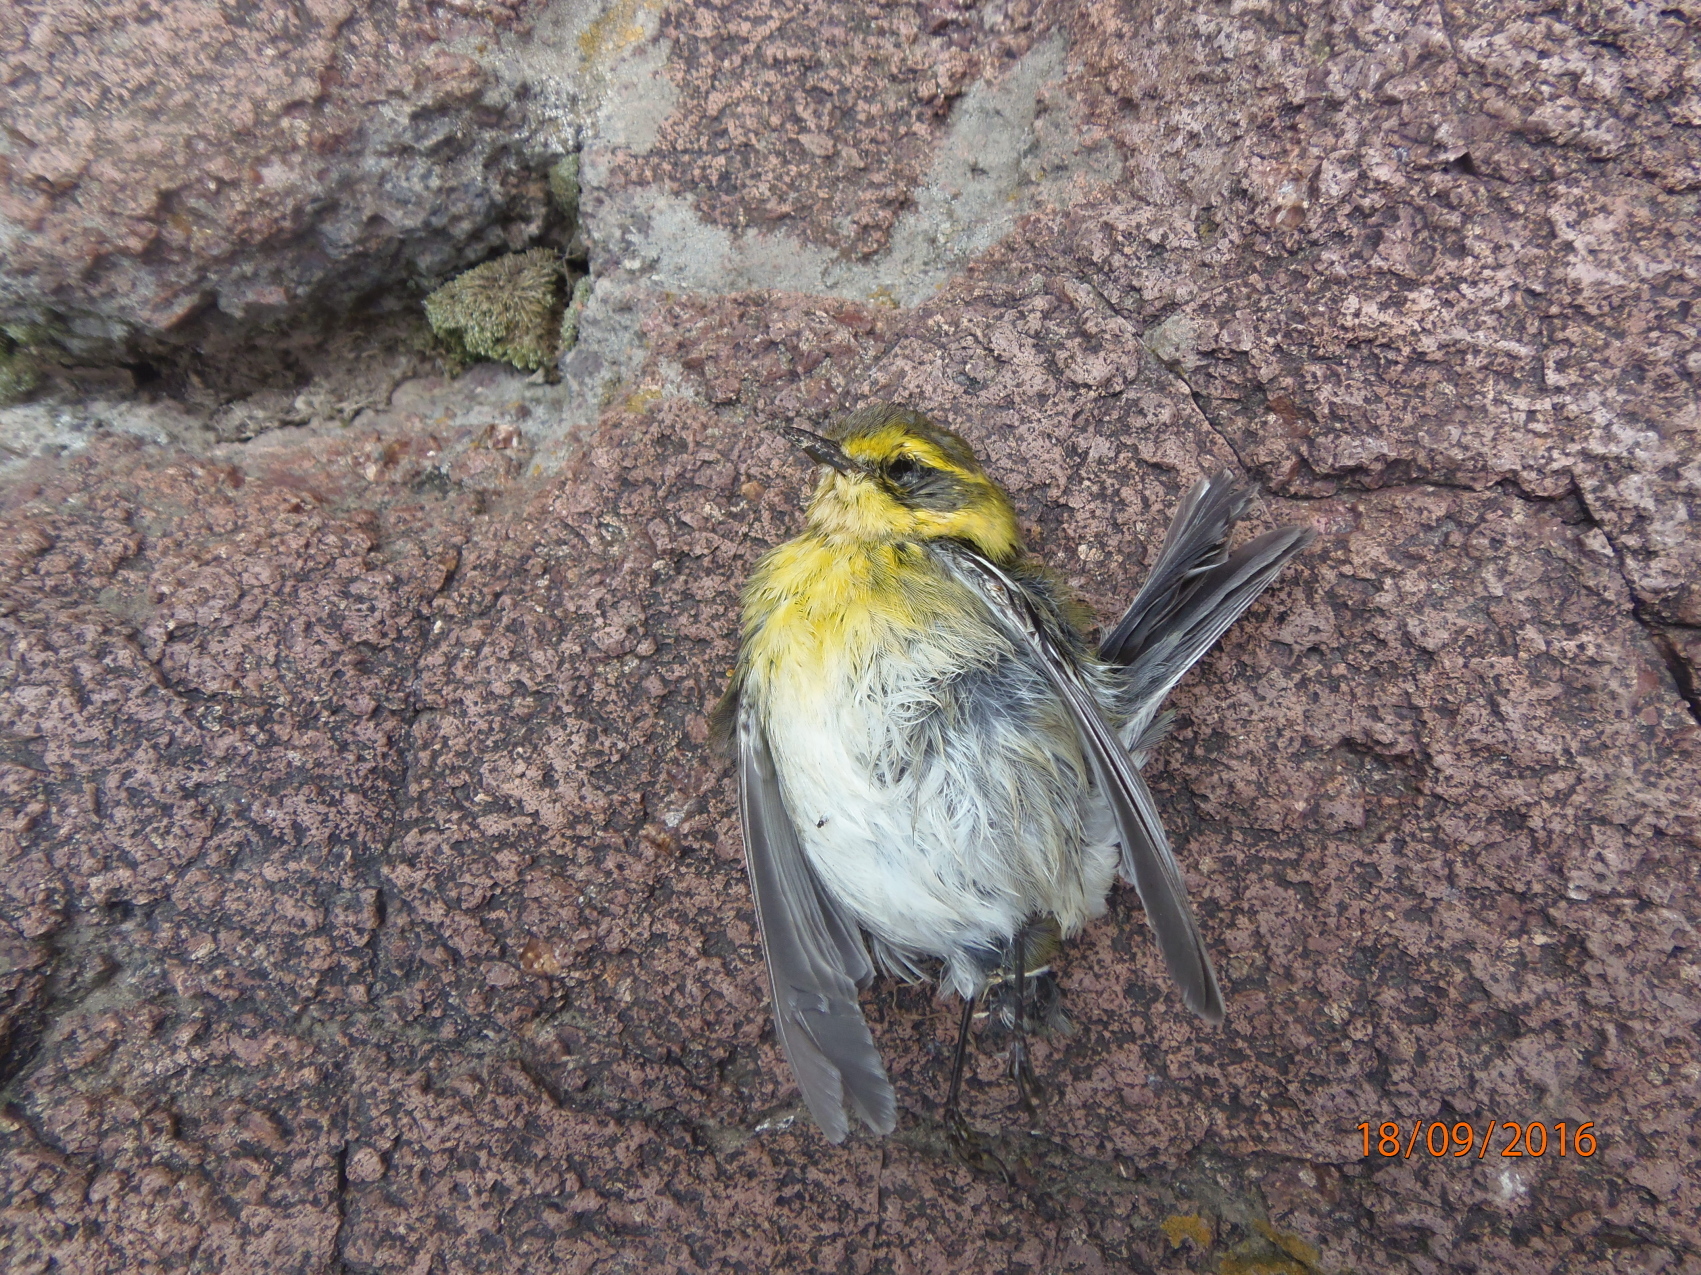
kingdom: Animalia
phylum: Chordata
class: Aves
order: Passeriformes
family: Parulidae
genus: Setophaga
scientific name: Setophaga townsendi
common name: Townsend's warbler
